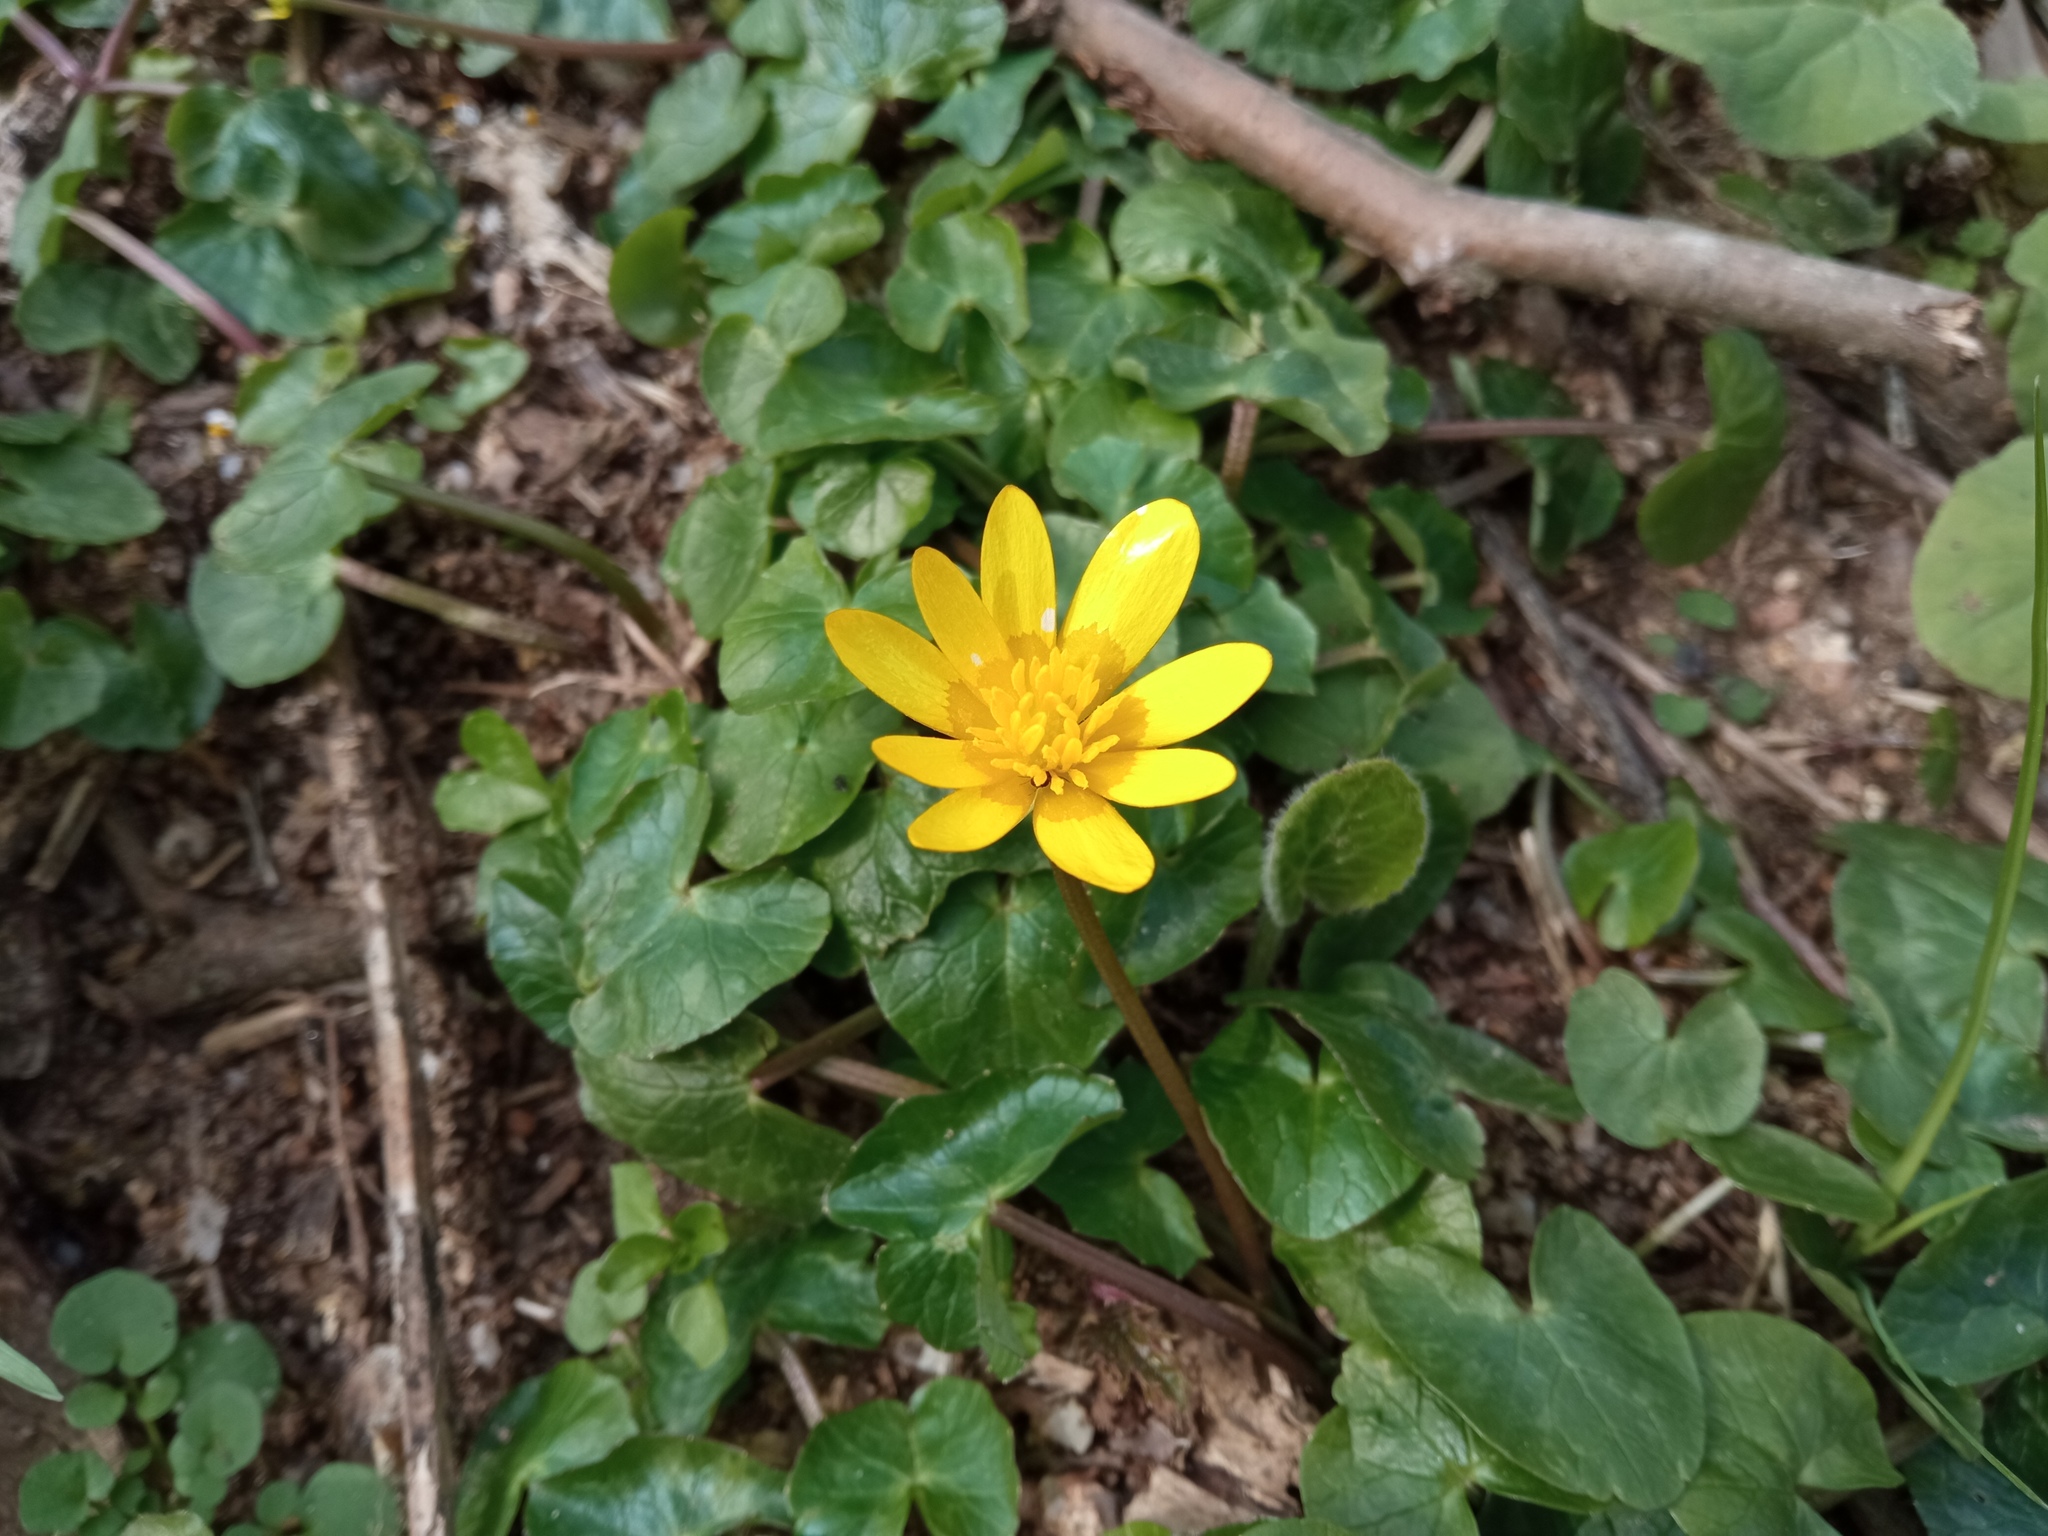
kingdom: Plantae
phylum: Tracheophyta
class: Magnoliopsida
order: Ranunculales
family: Ranunculaceae
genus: Ficaria
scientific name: Ficaria verna
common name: Lesser celandine
